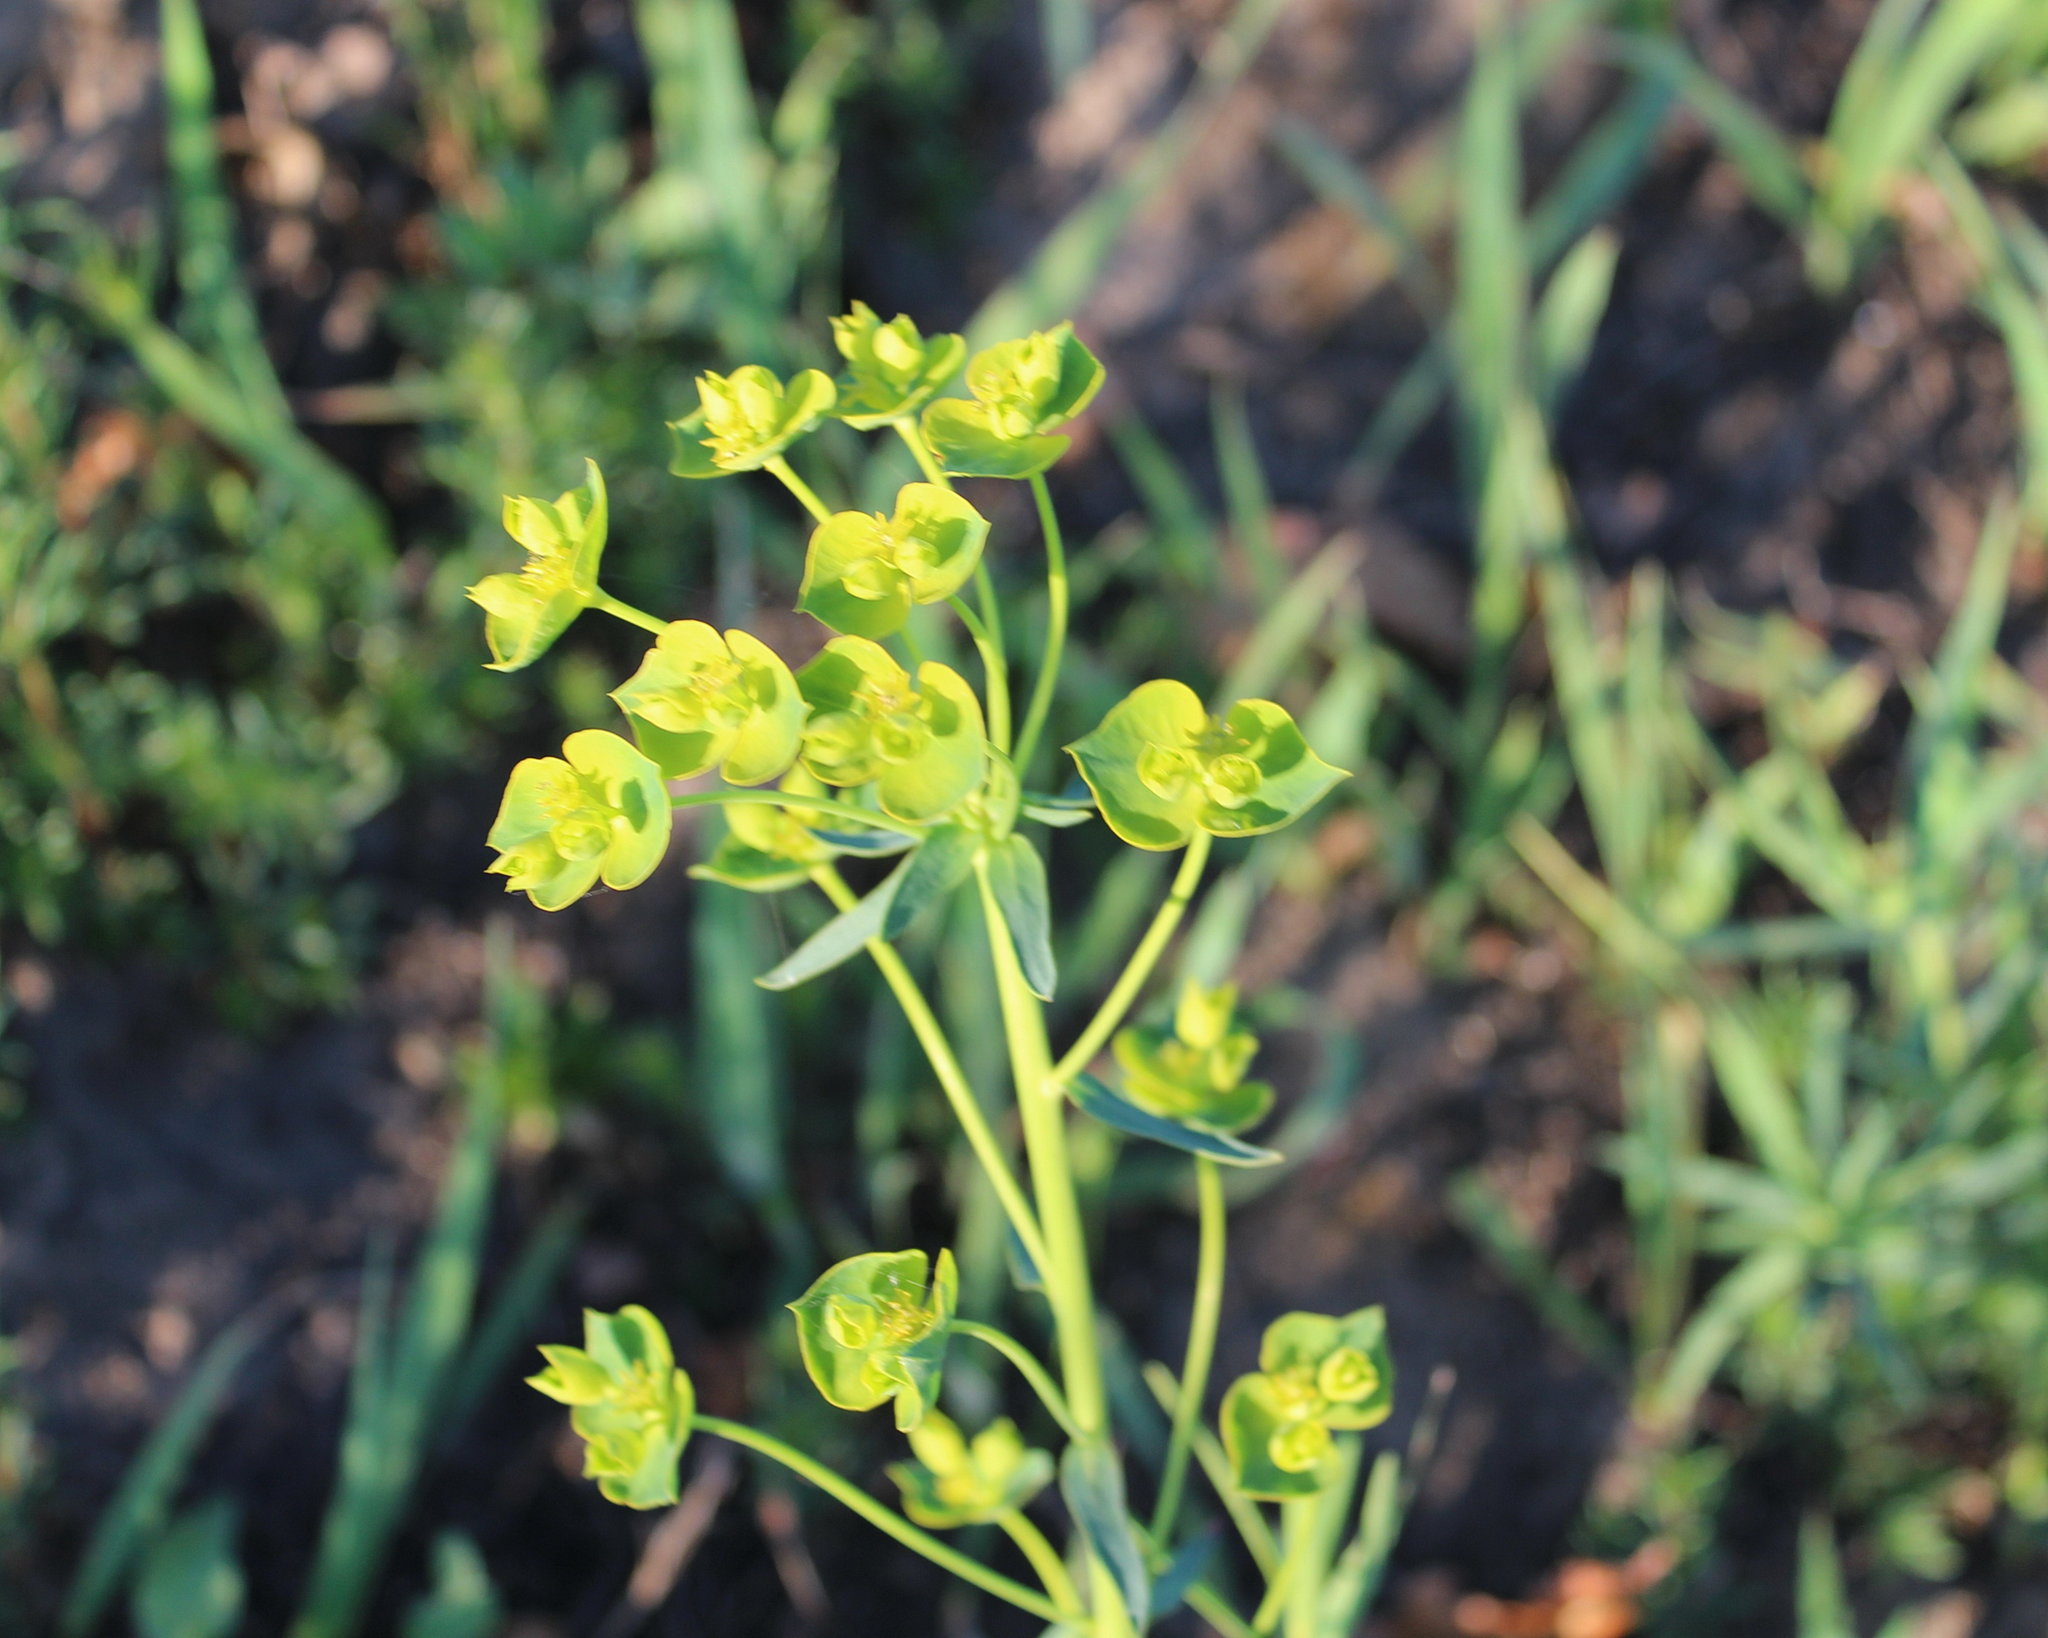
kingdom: Plantae
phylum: Tracheophyta
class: Magnoliopsida
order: Malpighiales
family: Euphorbiaceae
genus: Euphorbia
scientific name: Euphorbia virgata
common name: Leafy spurge
